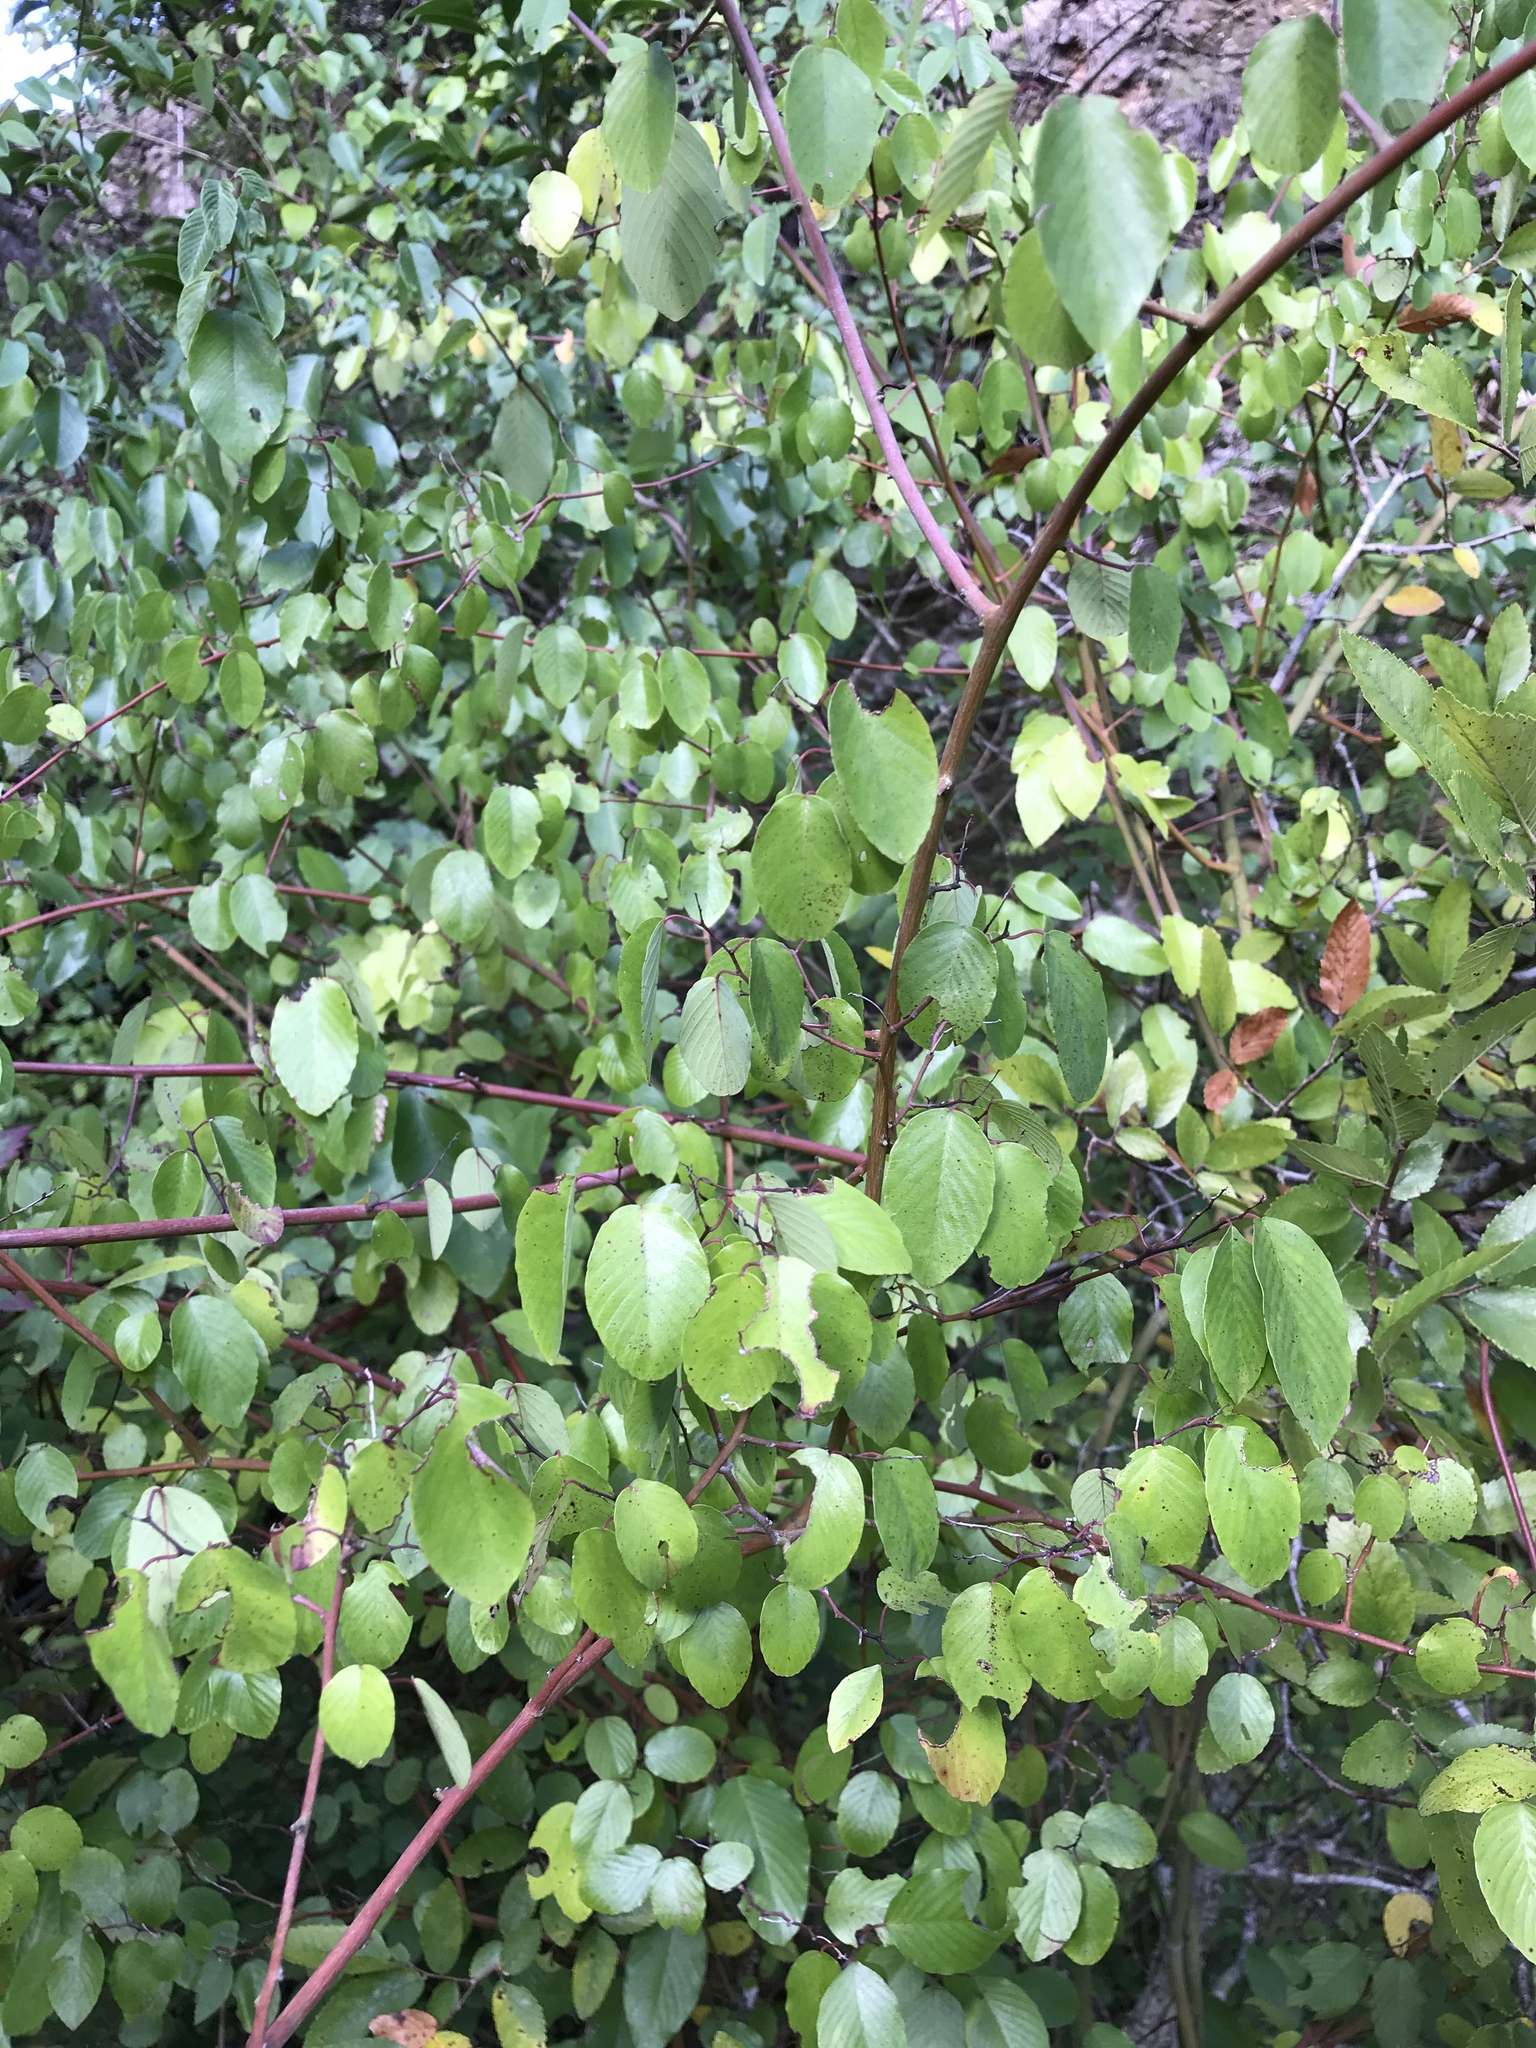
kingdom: Plantae
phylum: Tracheophyta
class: Magnoliopsida
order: Rosales
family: Rhamnaceae
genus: Berchemia
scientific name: Berchemia scandens
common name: Supplejack
